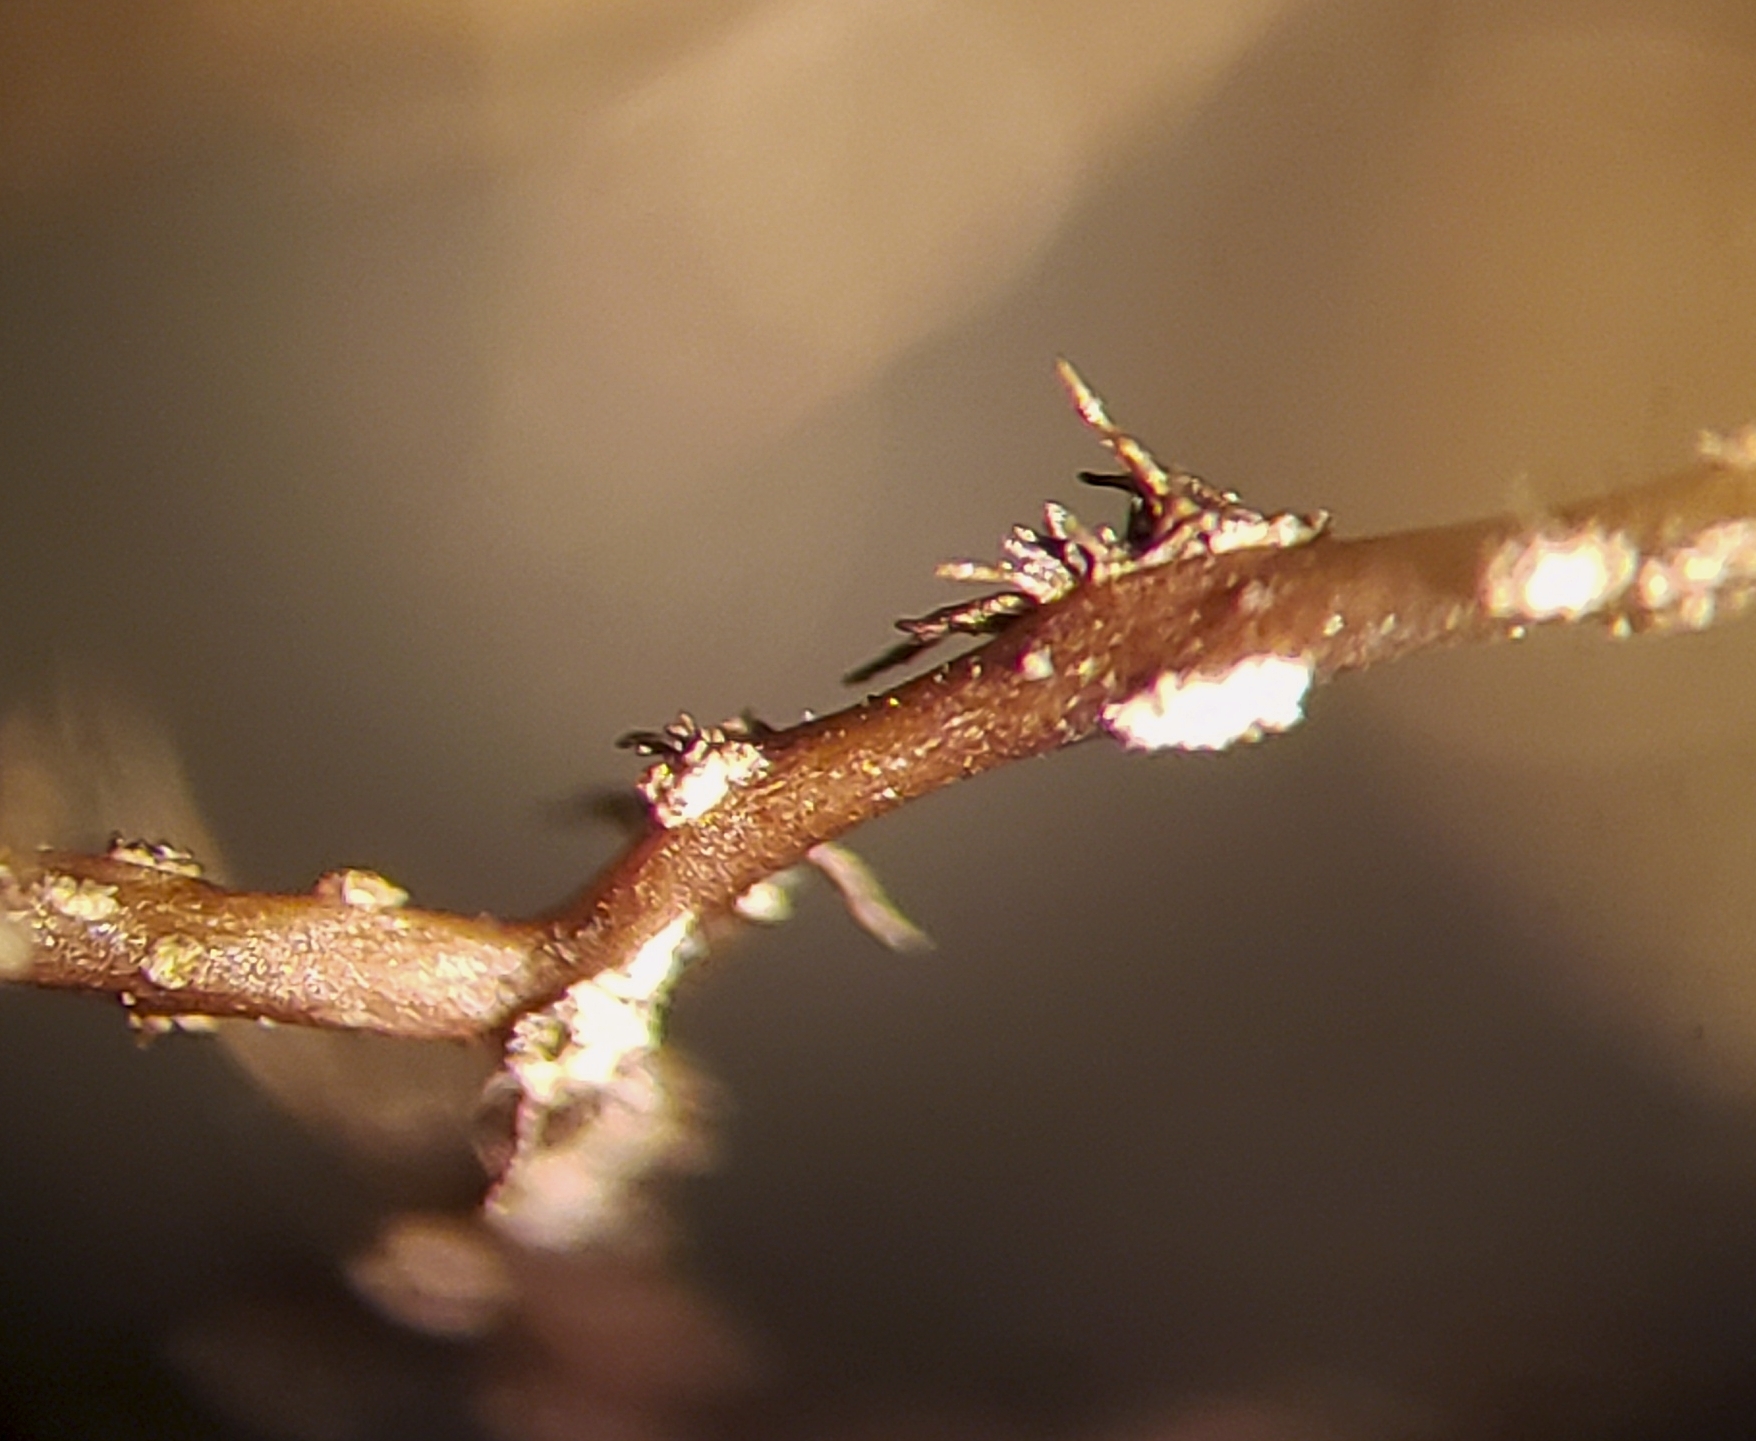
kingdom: Fungi
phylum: Ascomycota
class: Lecanoromycetes
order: Lecanorales
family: Parmeliaceae
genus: Bryoria
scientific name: Bryoria furcellata
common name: Forked hair-lichen
